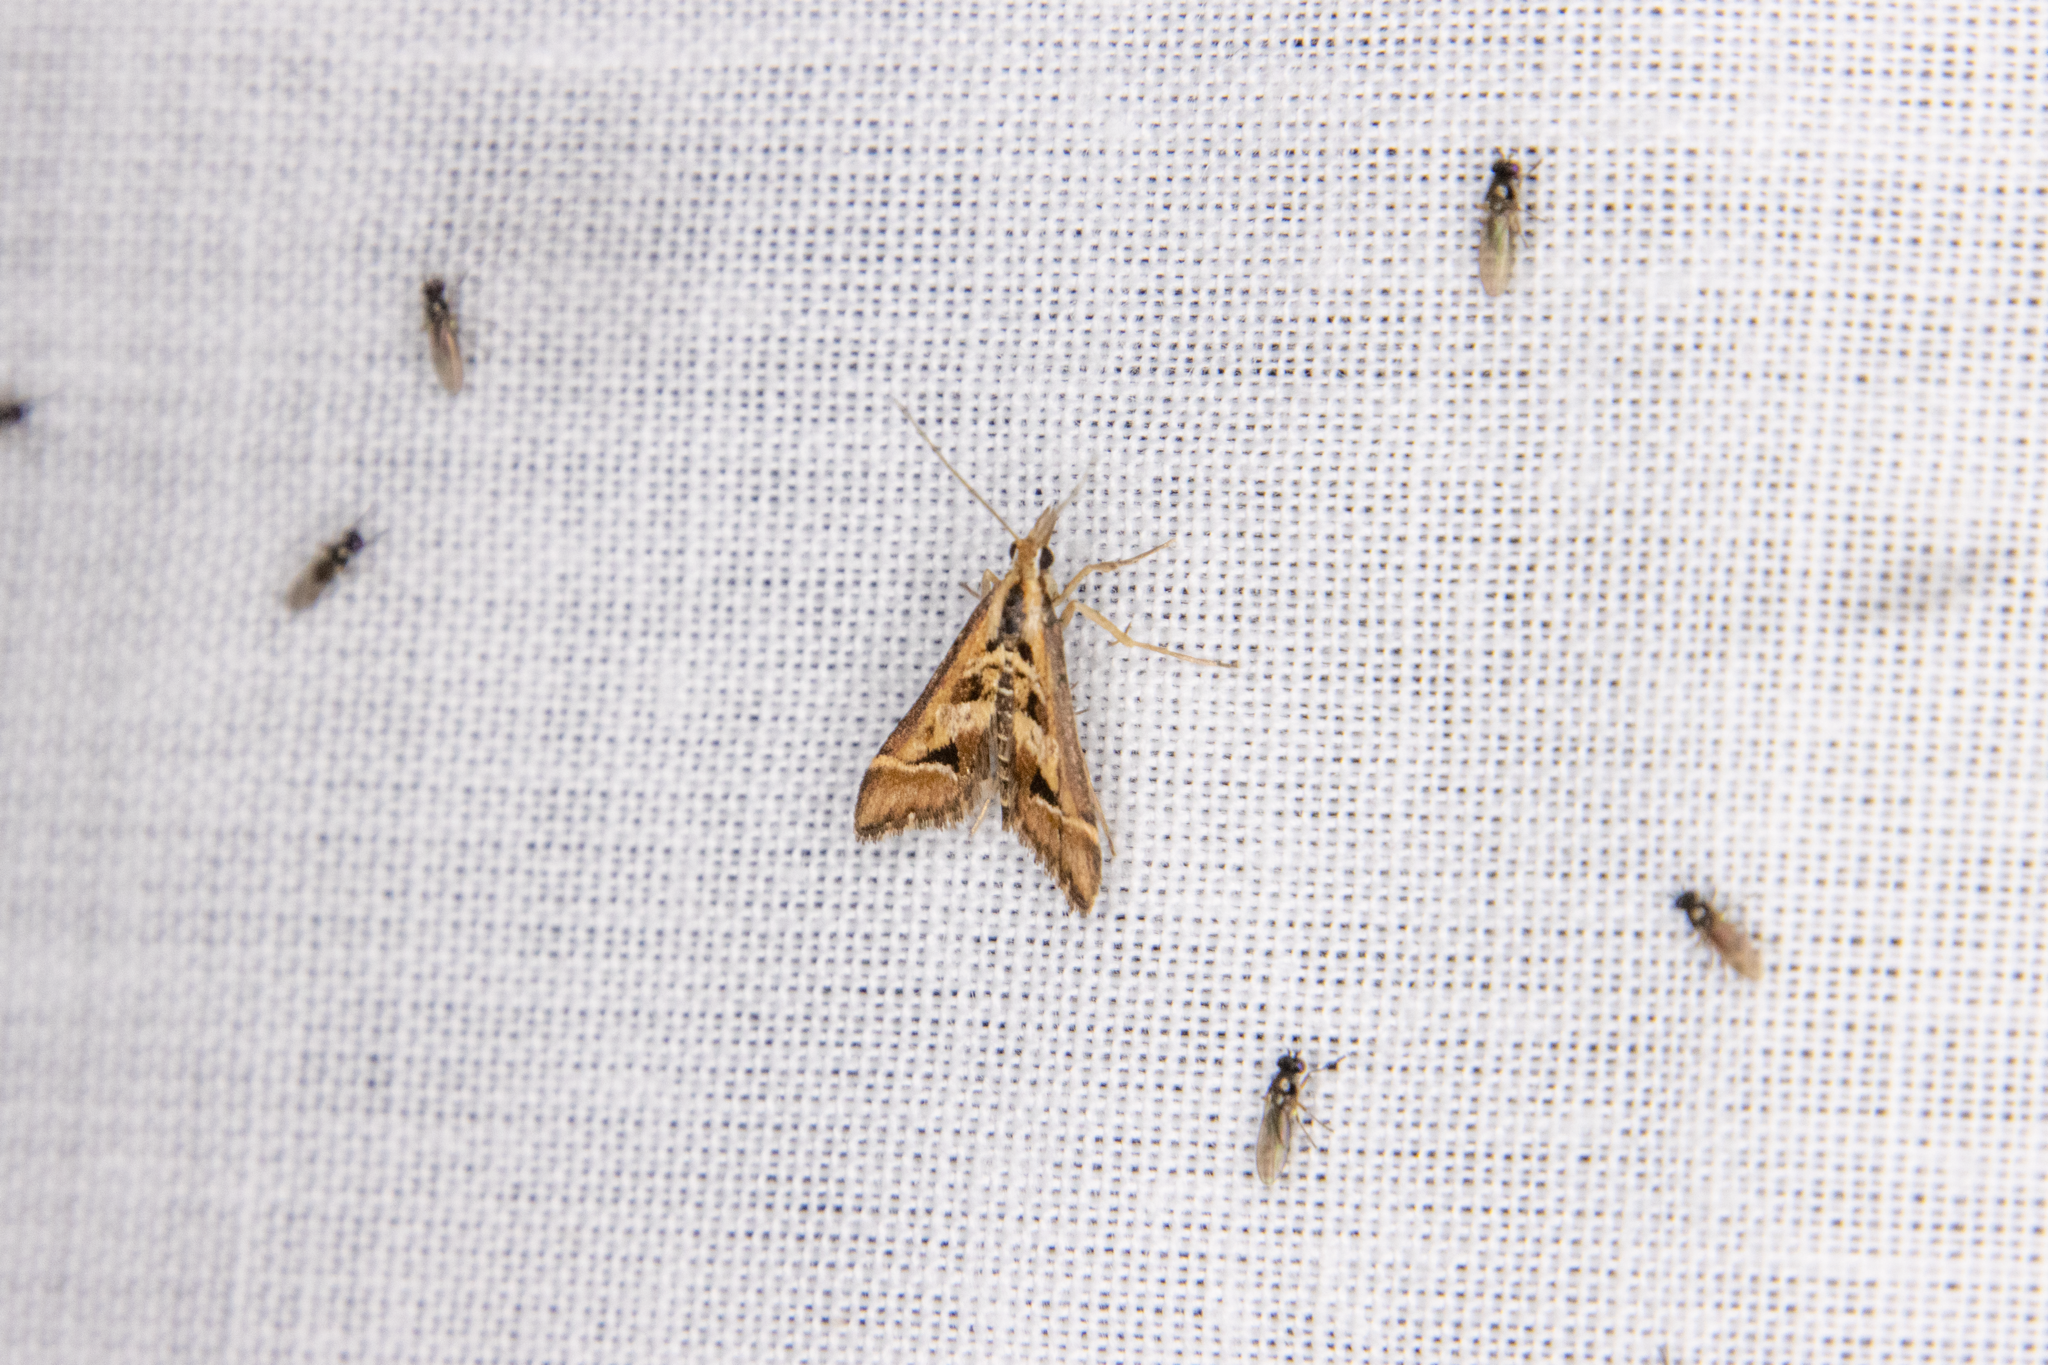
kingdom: Animalia
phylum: Arthropoda
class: Insecta
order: Lepidoptera
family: Crambidae
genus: Diasemia
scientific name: Diasemia grammalis
